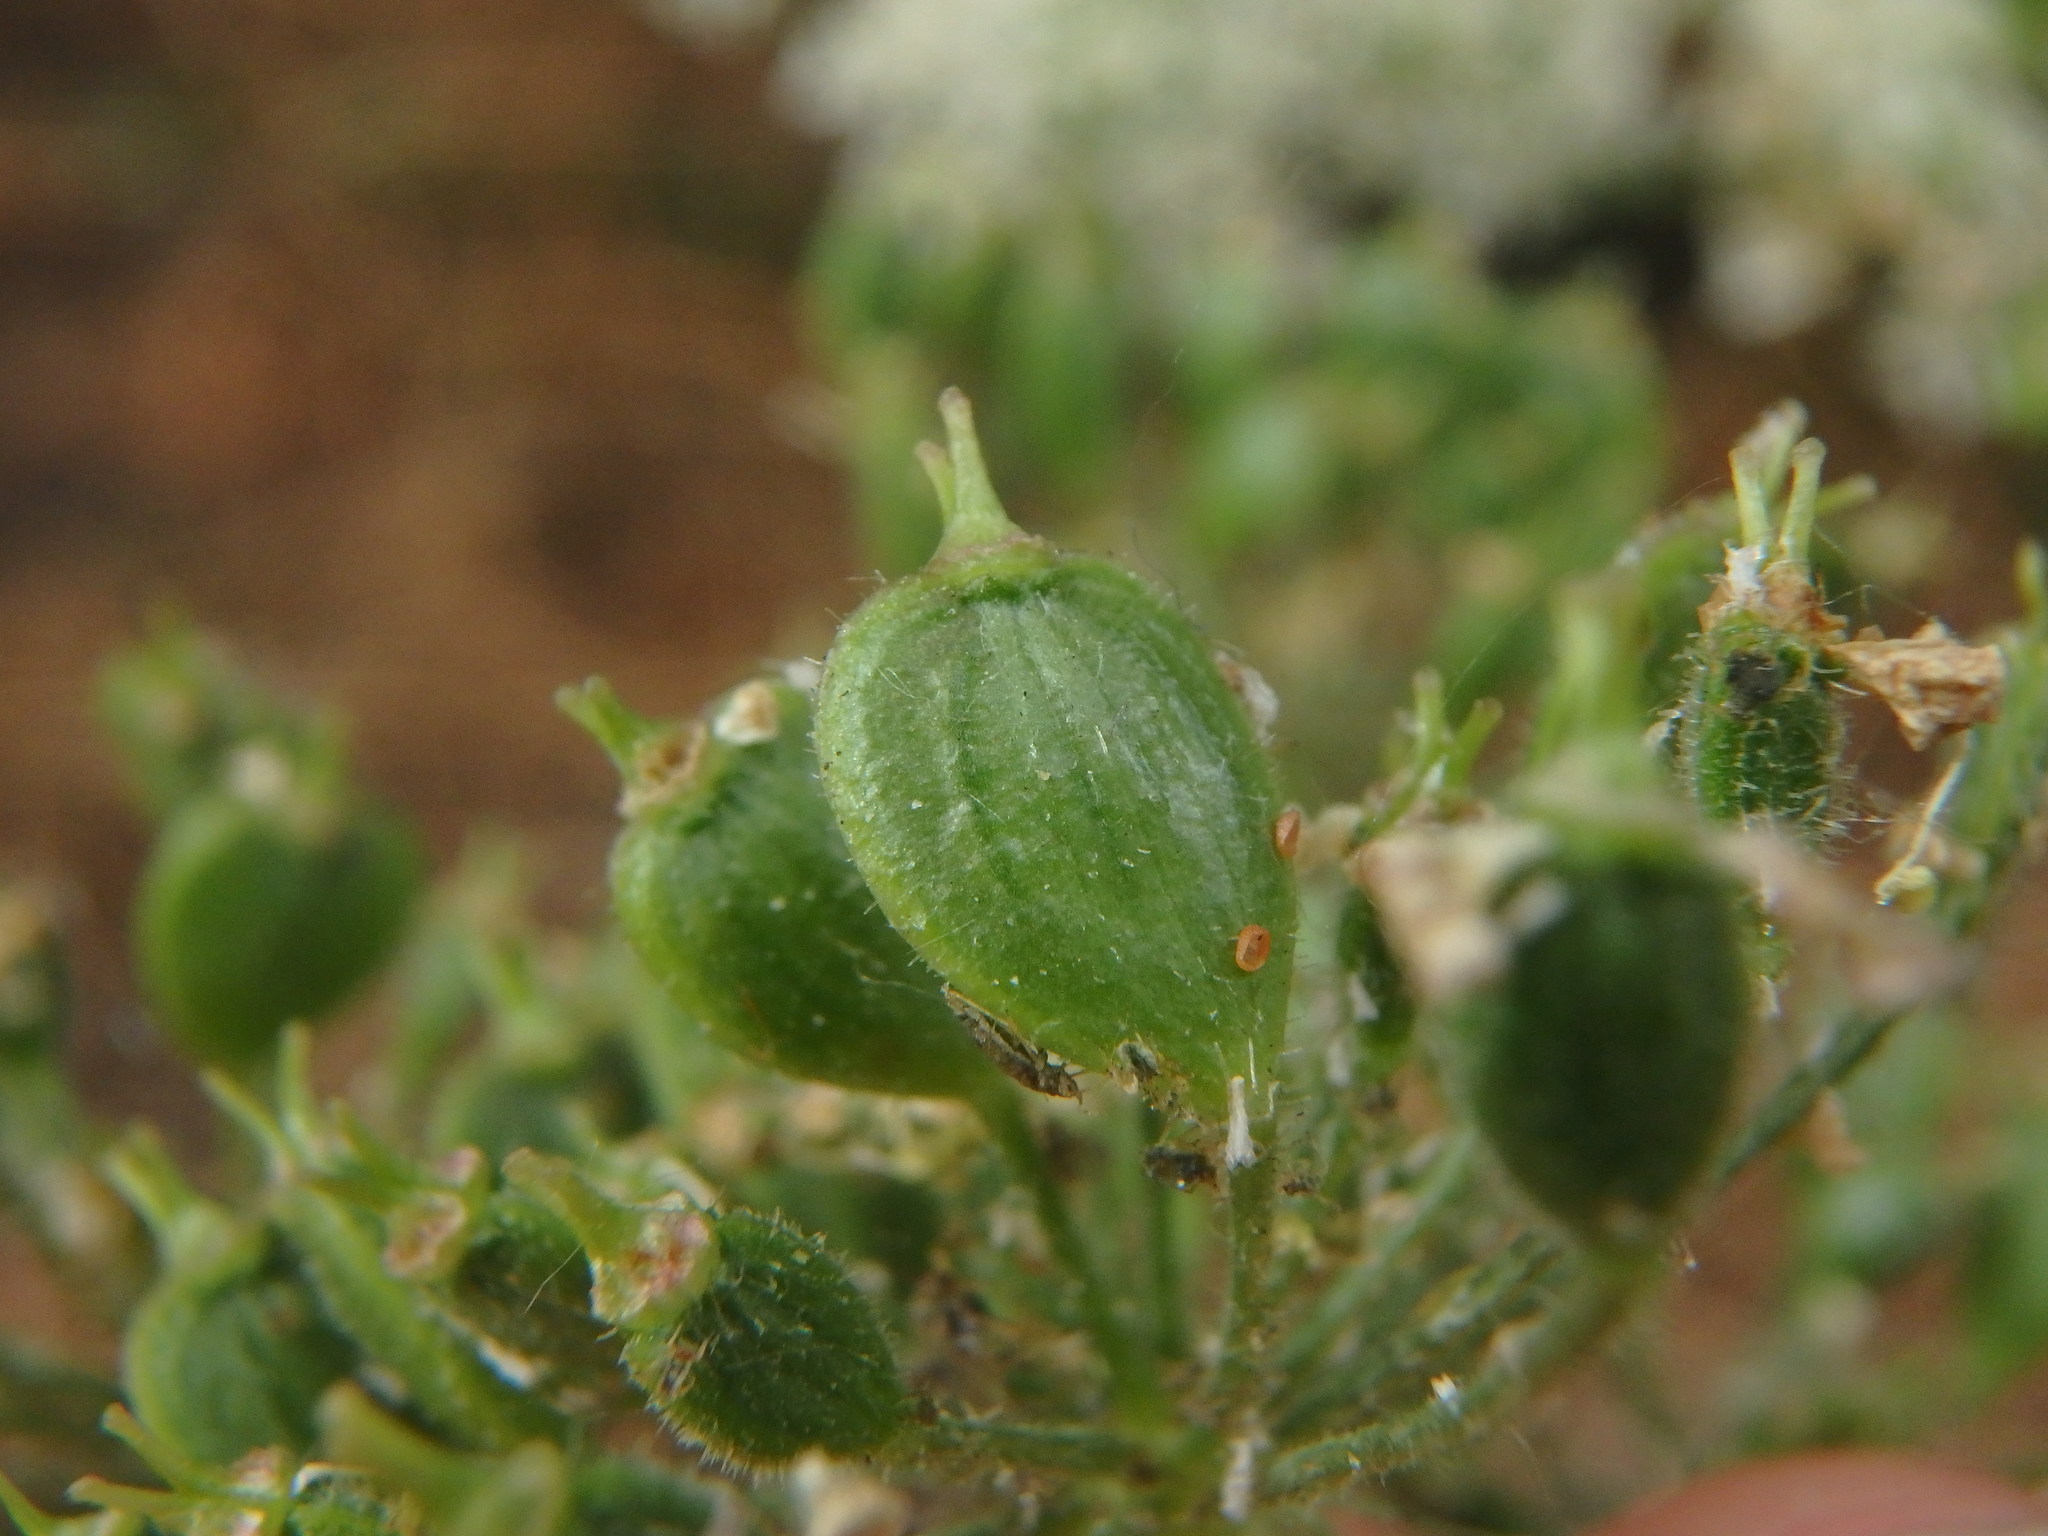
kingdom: Plantae
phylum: Tracheophyta
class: Magnoliopsida
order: Apiales
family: Apiaceae
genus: Heracleum
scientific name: Heracleum sphondylium
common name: Hogweed
